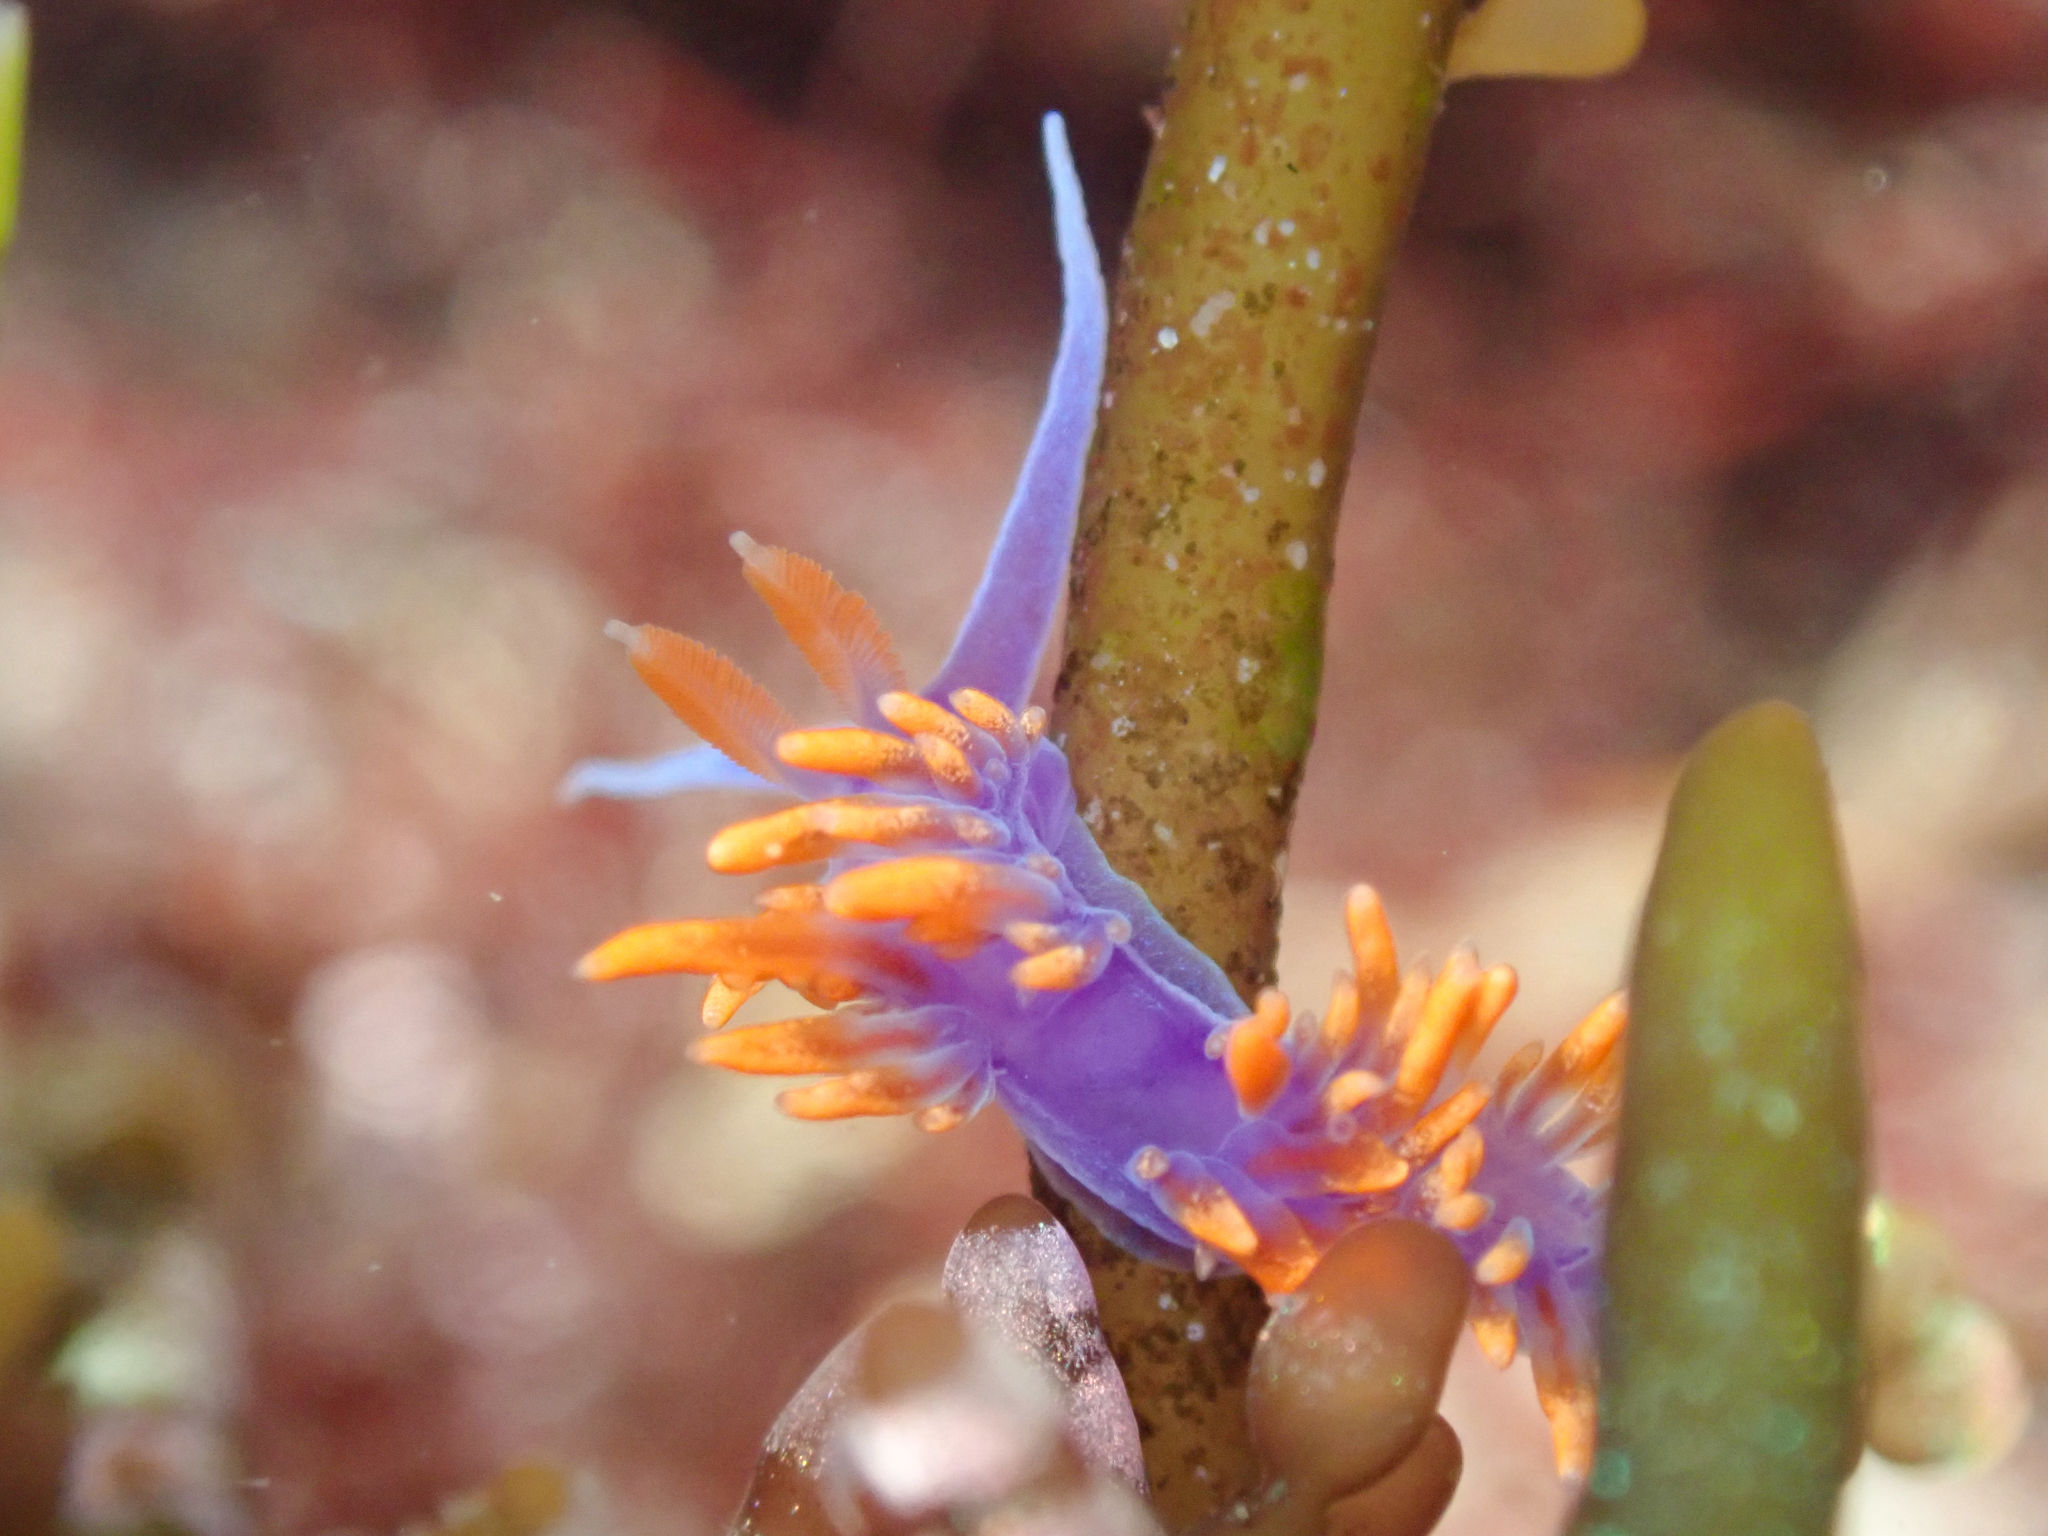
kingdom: Animalia
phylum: Mollusca
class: Gastropoda
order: Nudibranchia
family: Flabellinopsidae
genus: Flabellinopsis
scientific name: Flabellinopsis iodinea
